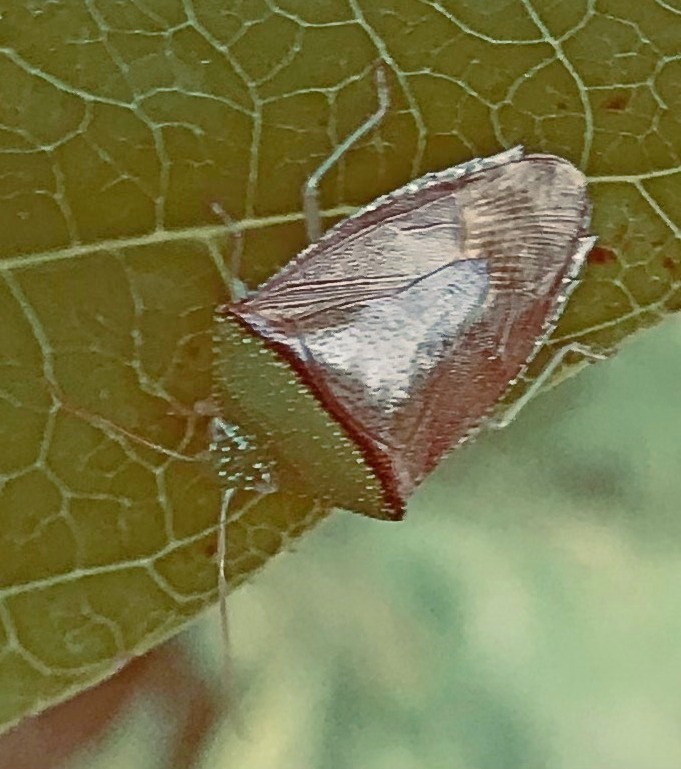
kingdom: Animalia
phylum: Arthropoda
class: Insecta
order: Hemiptera
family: Pentatomidae
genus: Hypoxys
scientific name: Hypoxys triangularis
